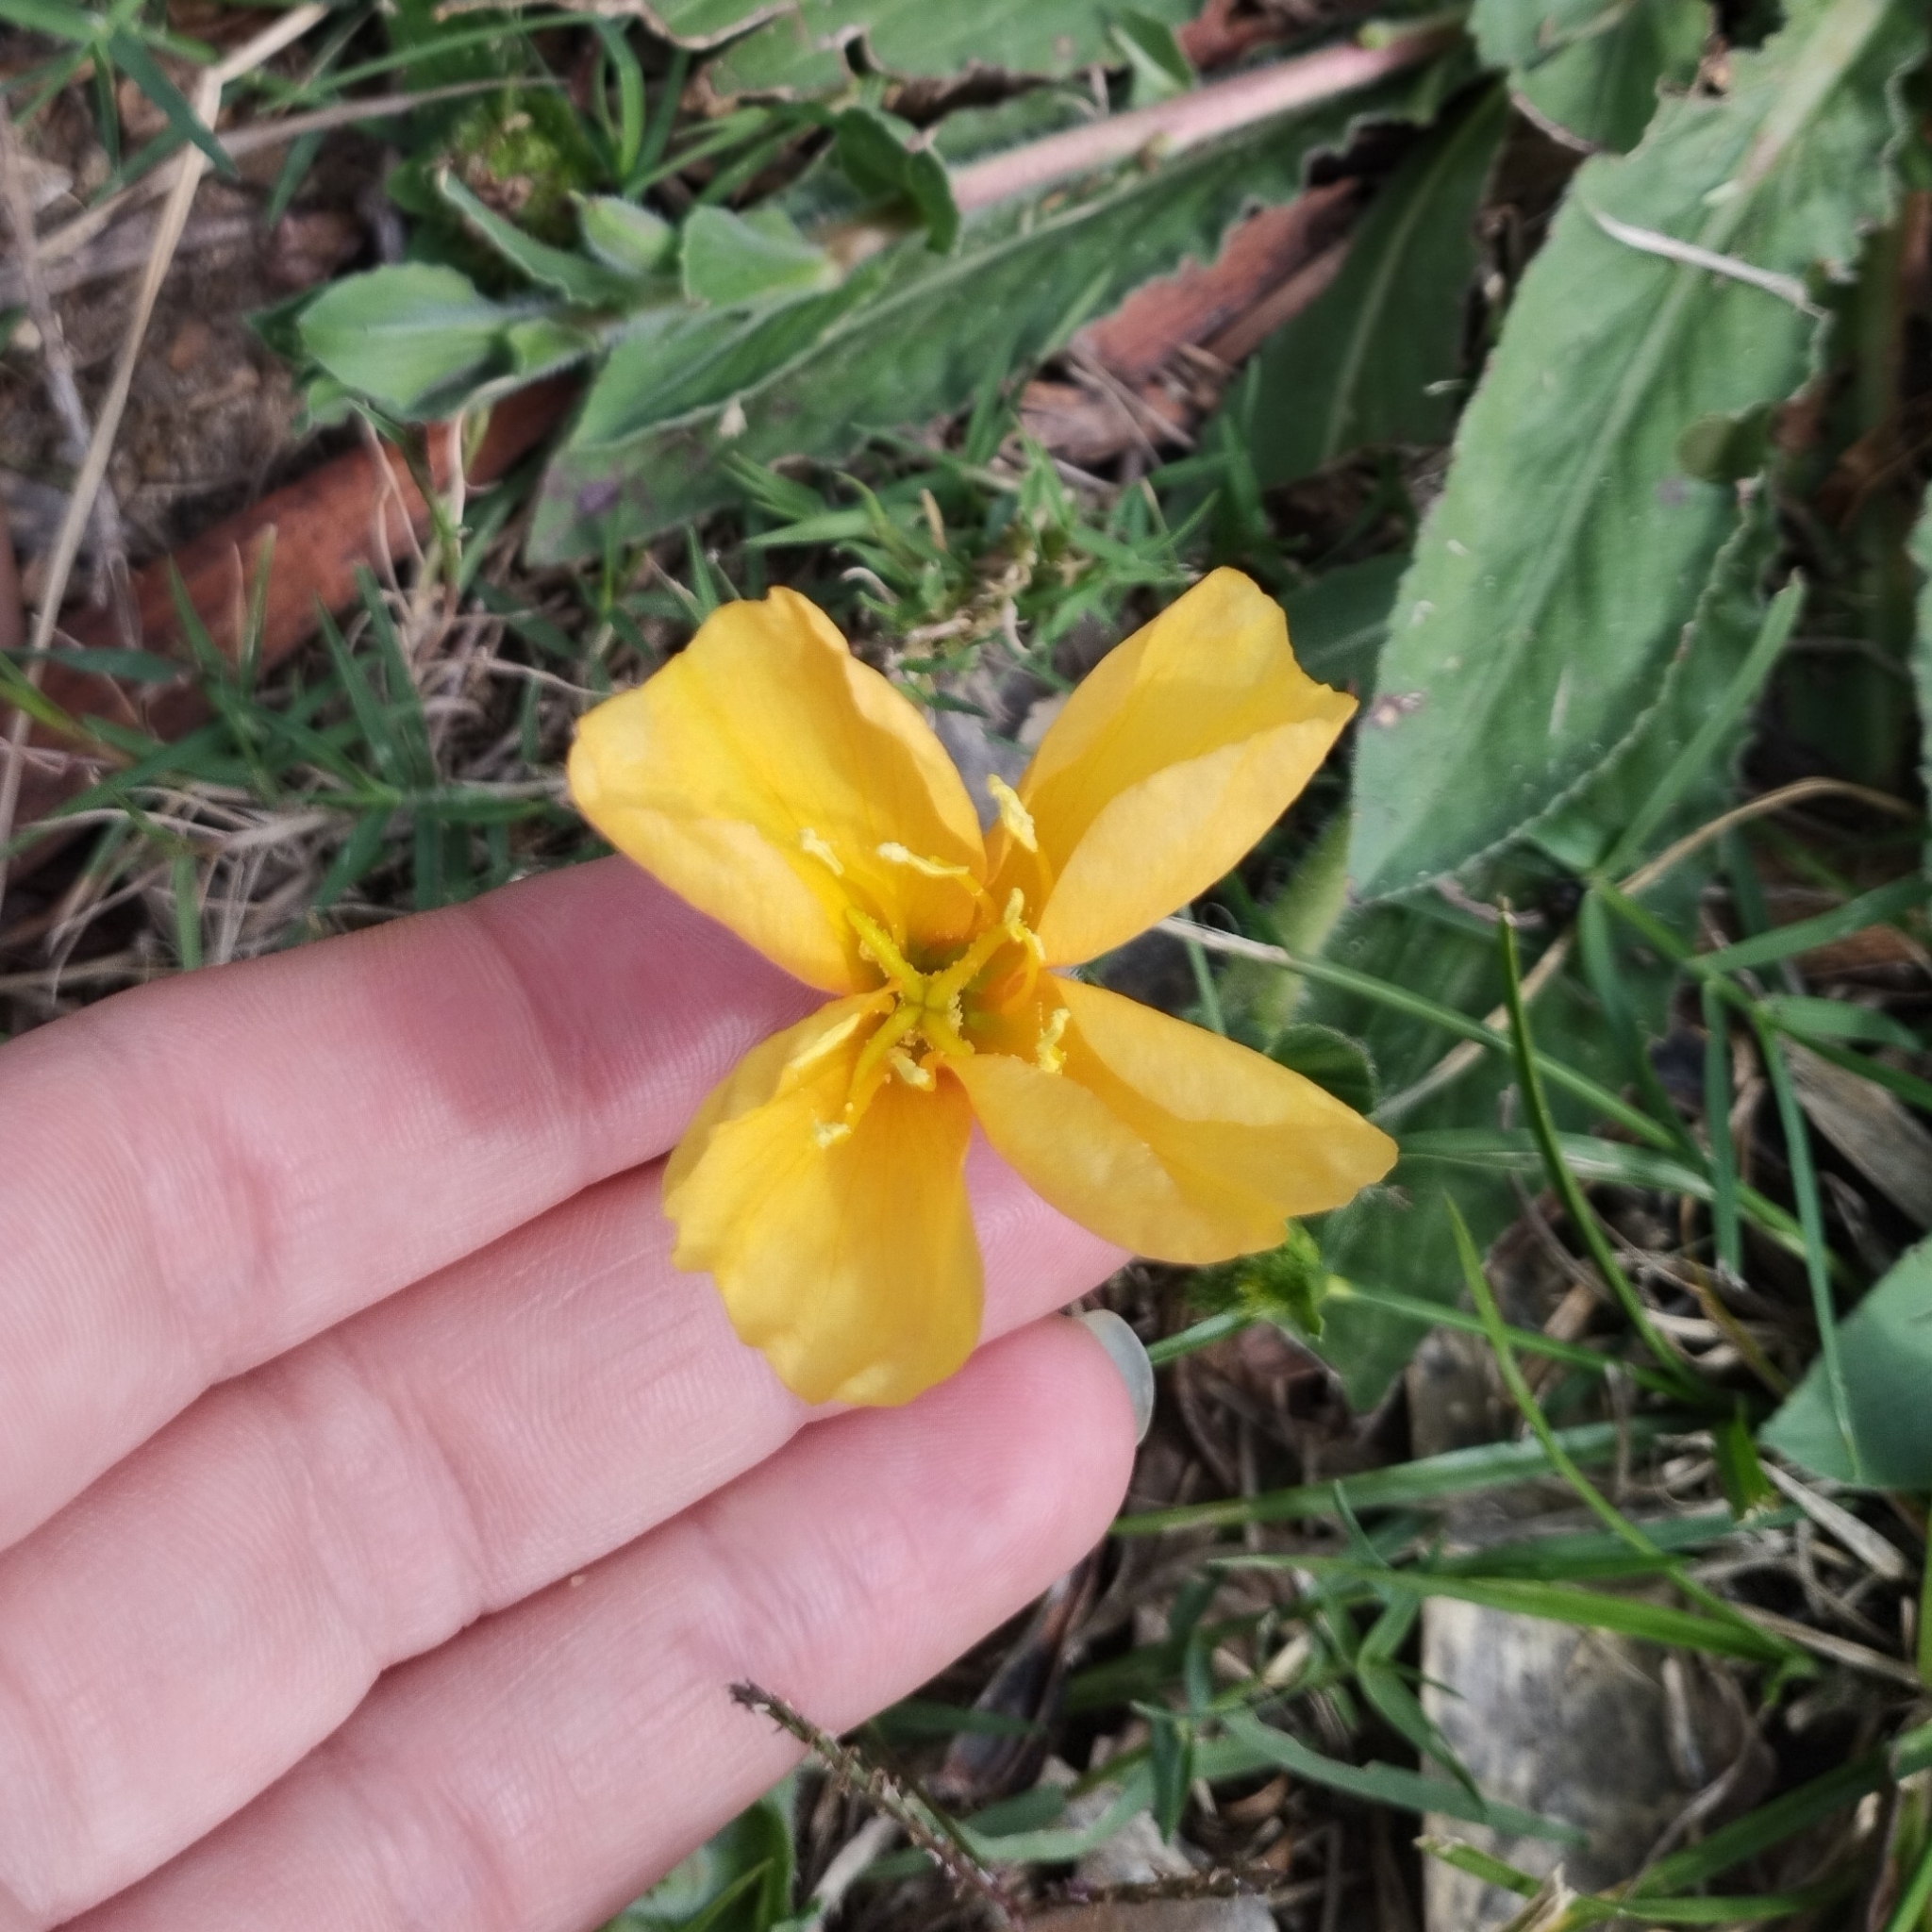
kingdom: Plantae
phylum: Tracheophyta
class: Magnoliopsida
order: Myrtales
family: Onagraceae
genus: Oenothera
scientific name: Oenothera mollissima
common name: Argentine evening primrose
